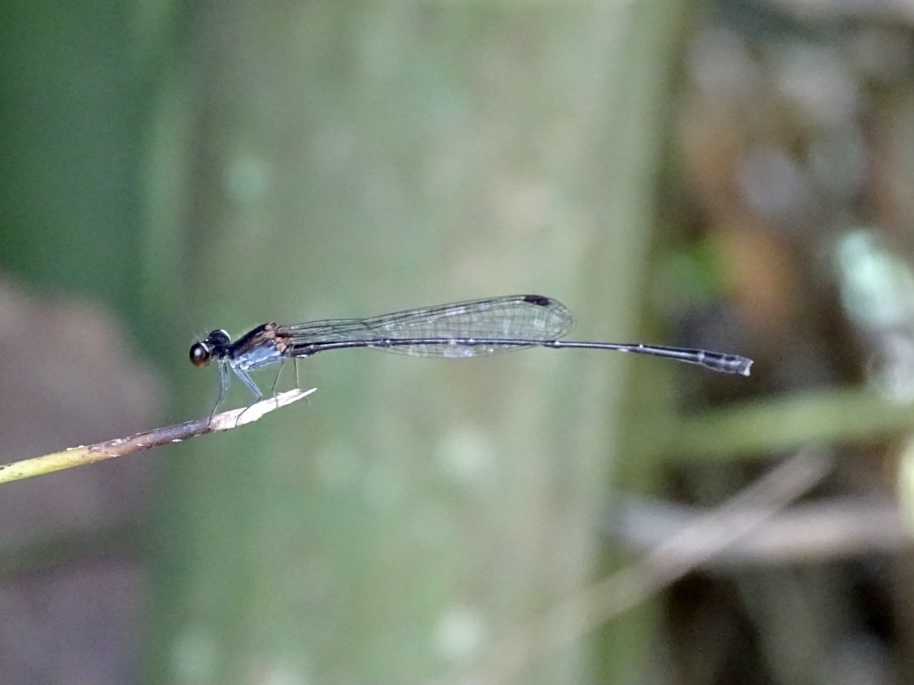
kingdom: Animalia
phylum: Arthropoda
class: Insecta
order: Odonata
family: Platycnemididae
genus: Prodasineura
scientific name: Prodasineura autumnalis
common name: Black threadtail
